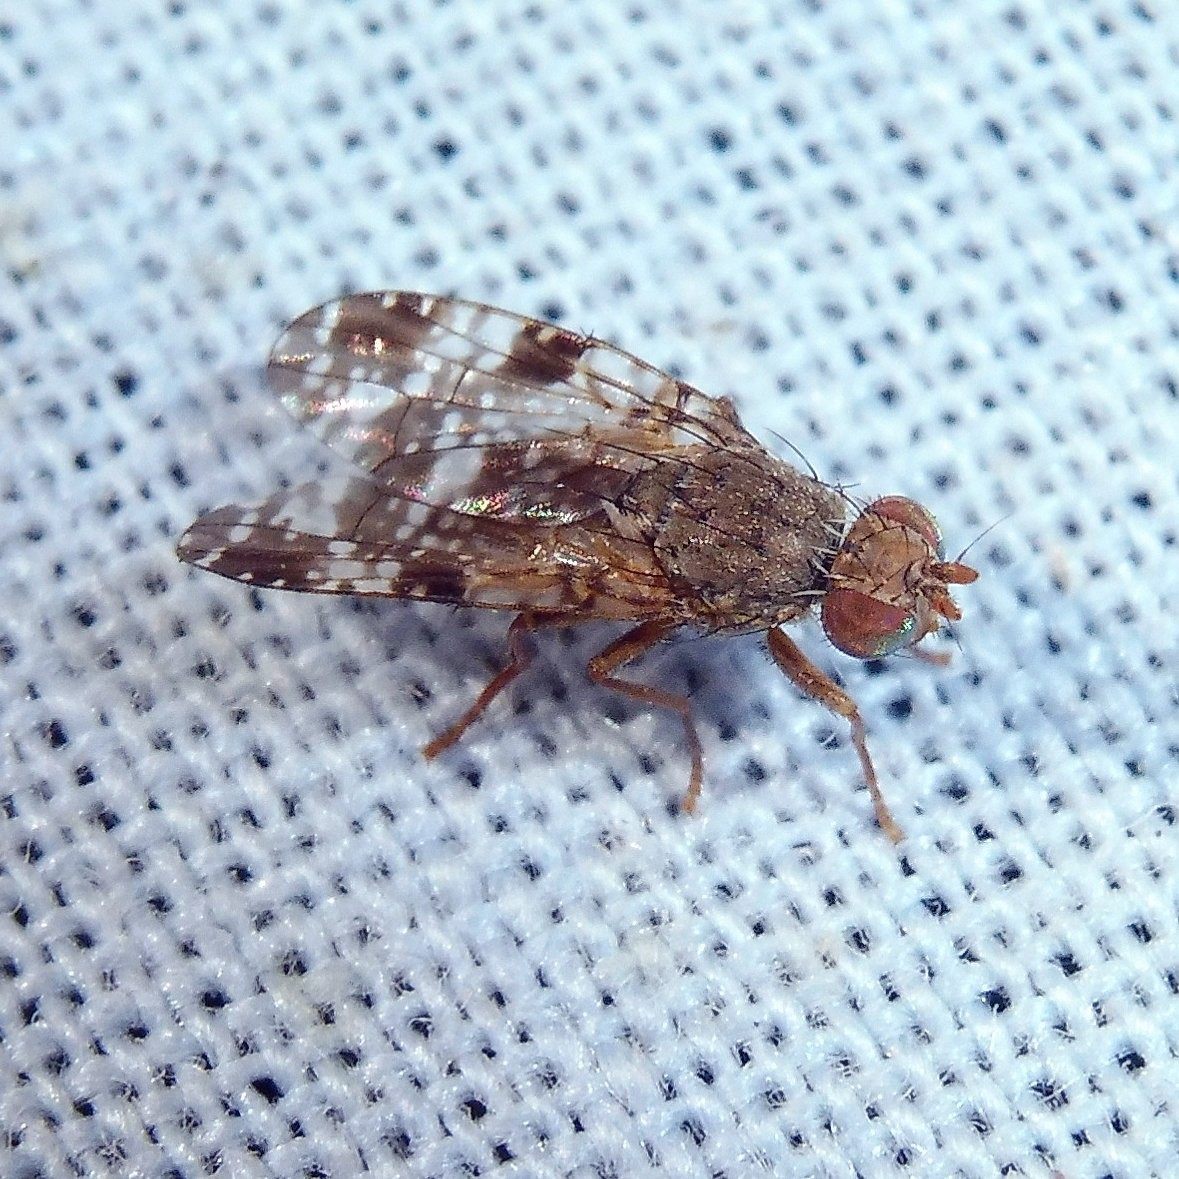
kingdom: Animalia
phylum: Arthropoda
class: Insecta
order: Diptera
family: Tephritidae
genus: Tephritis
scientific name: Tephritis vespertina
